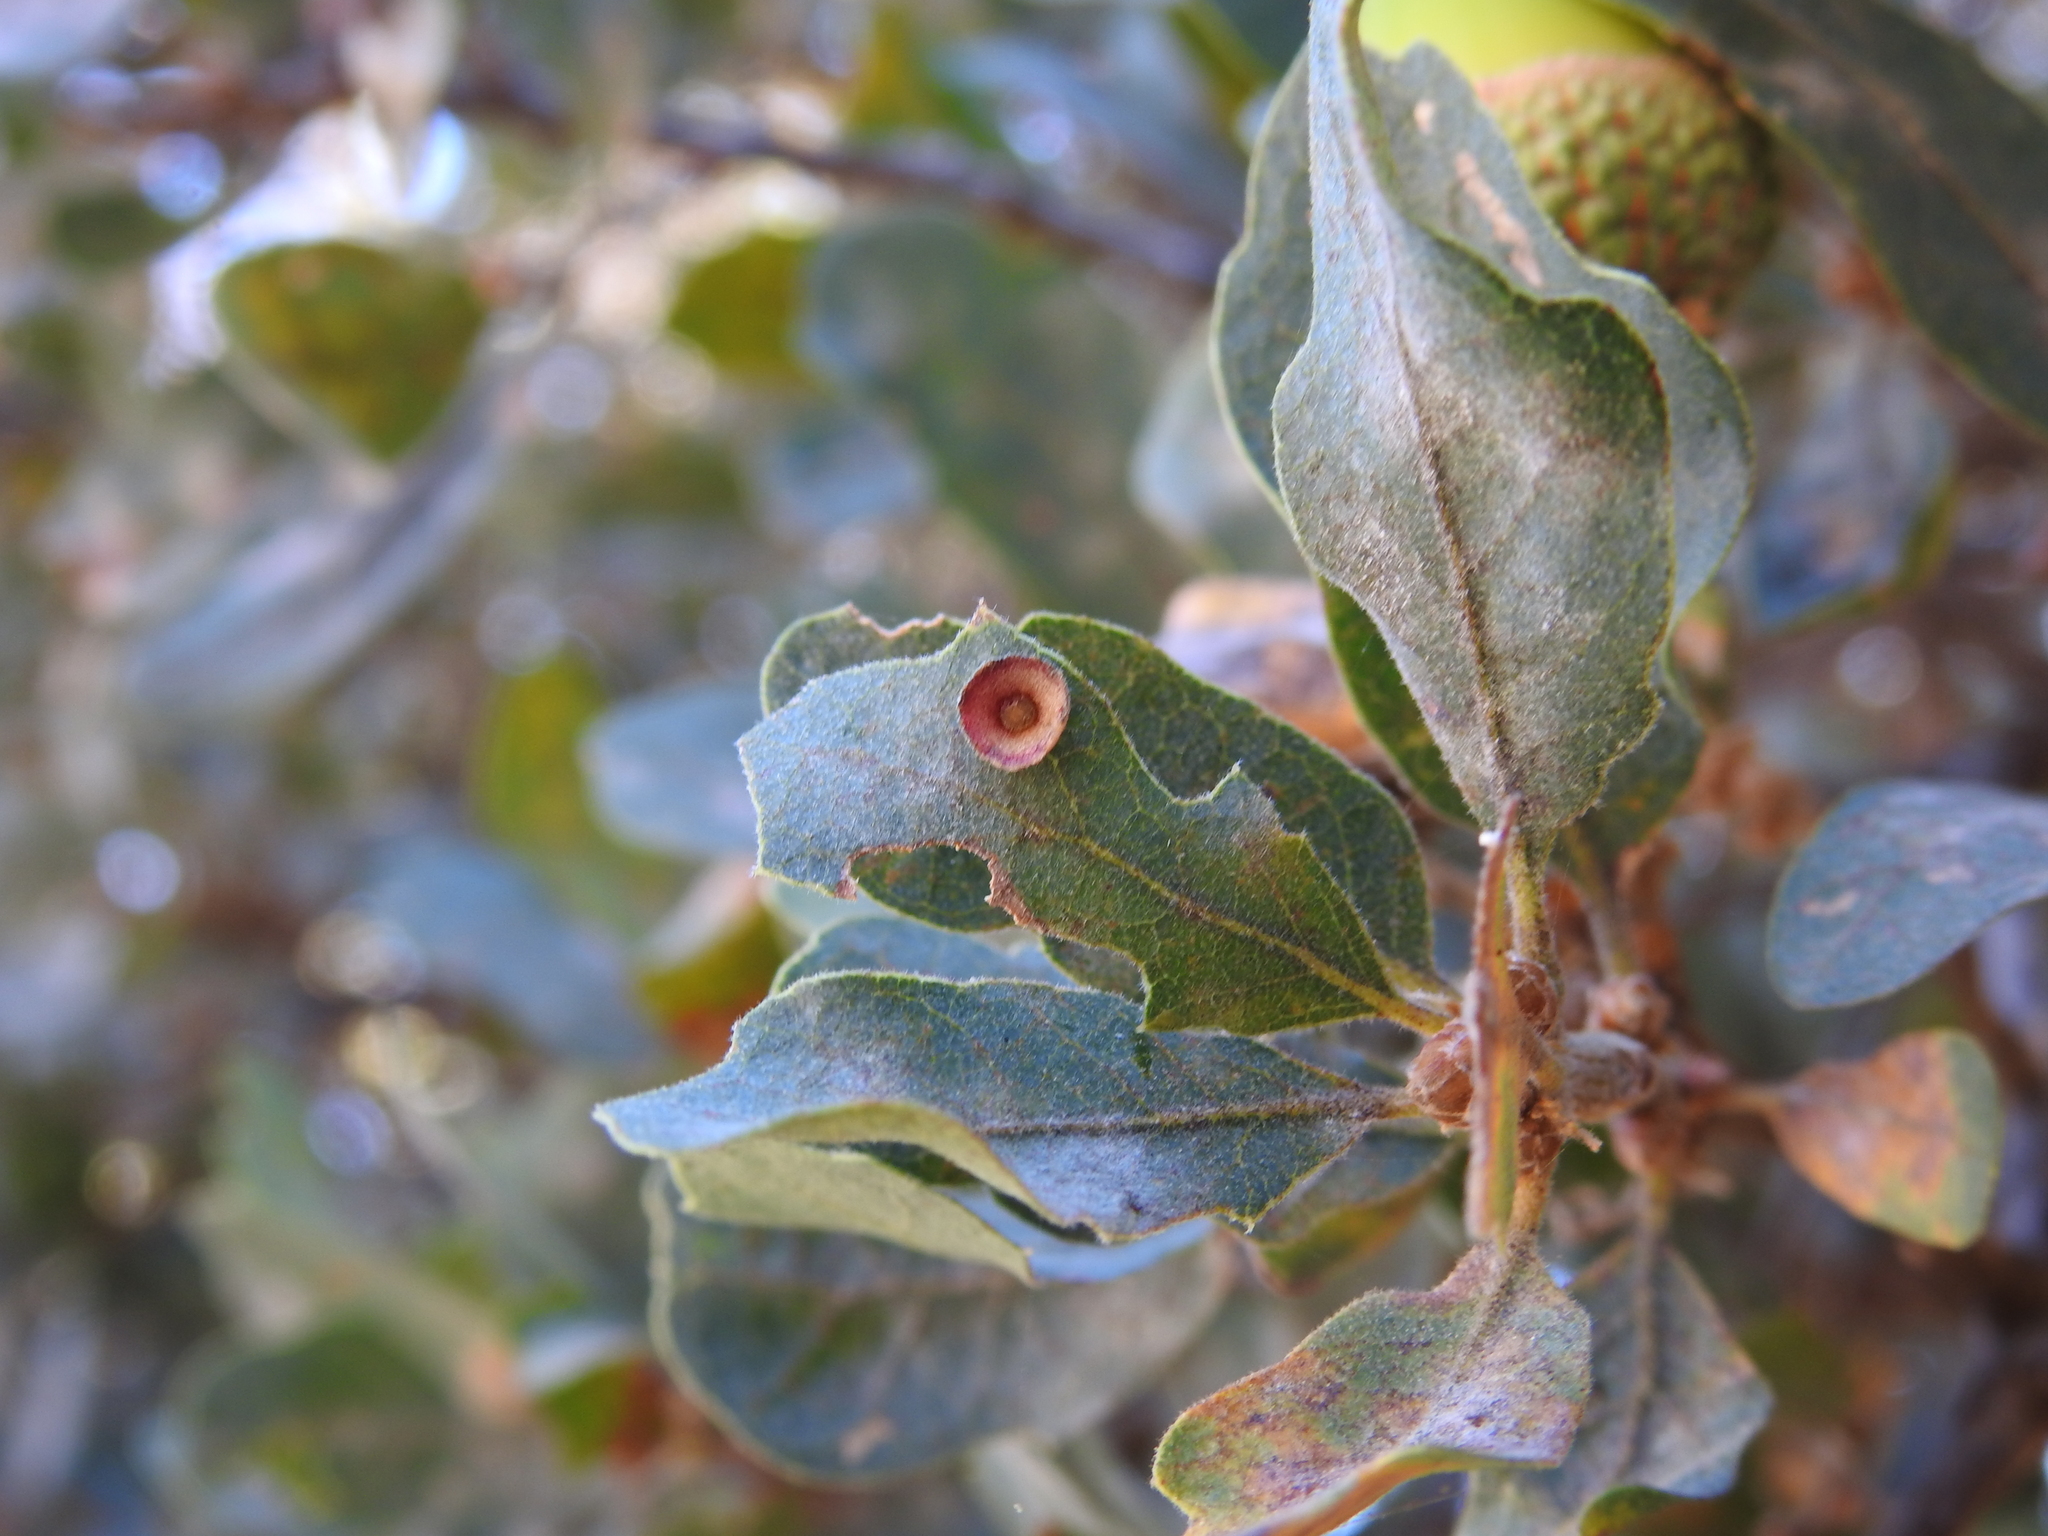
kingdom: Animalia
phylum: Arthropoda
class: Insecta
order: Hymenoptera
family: Cynipidae
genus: Andricus
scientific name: Andricus
